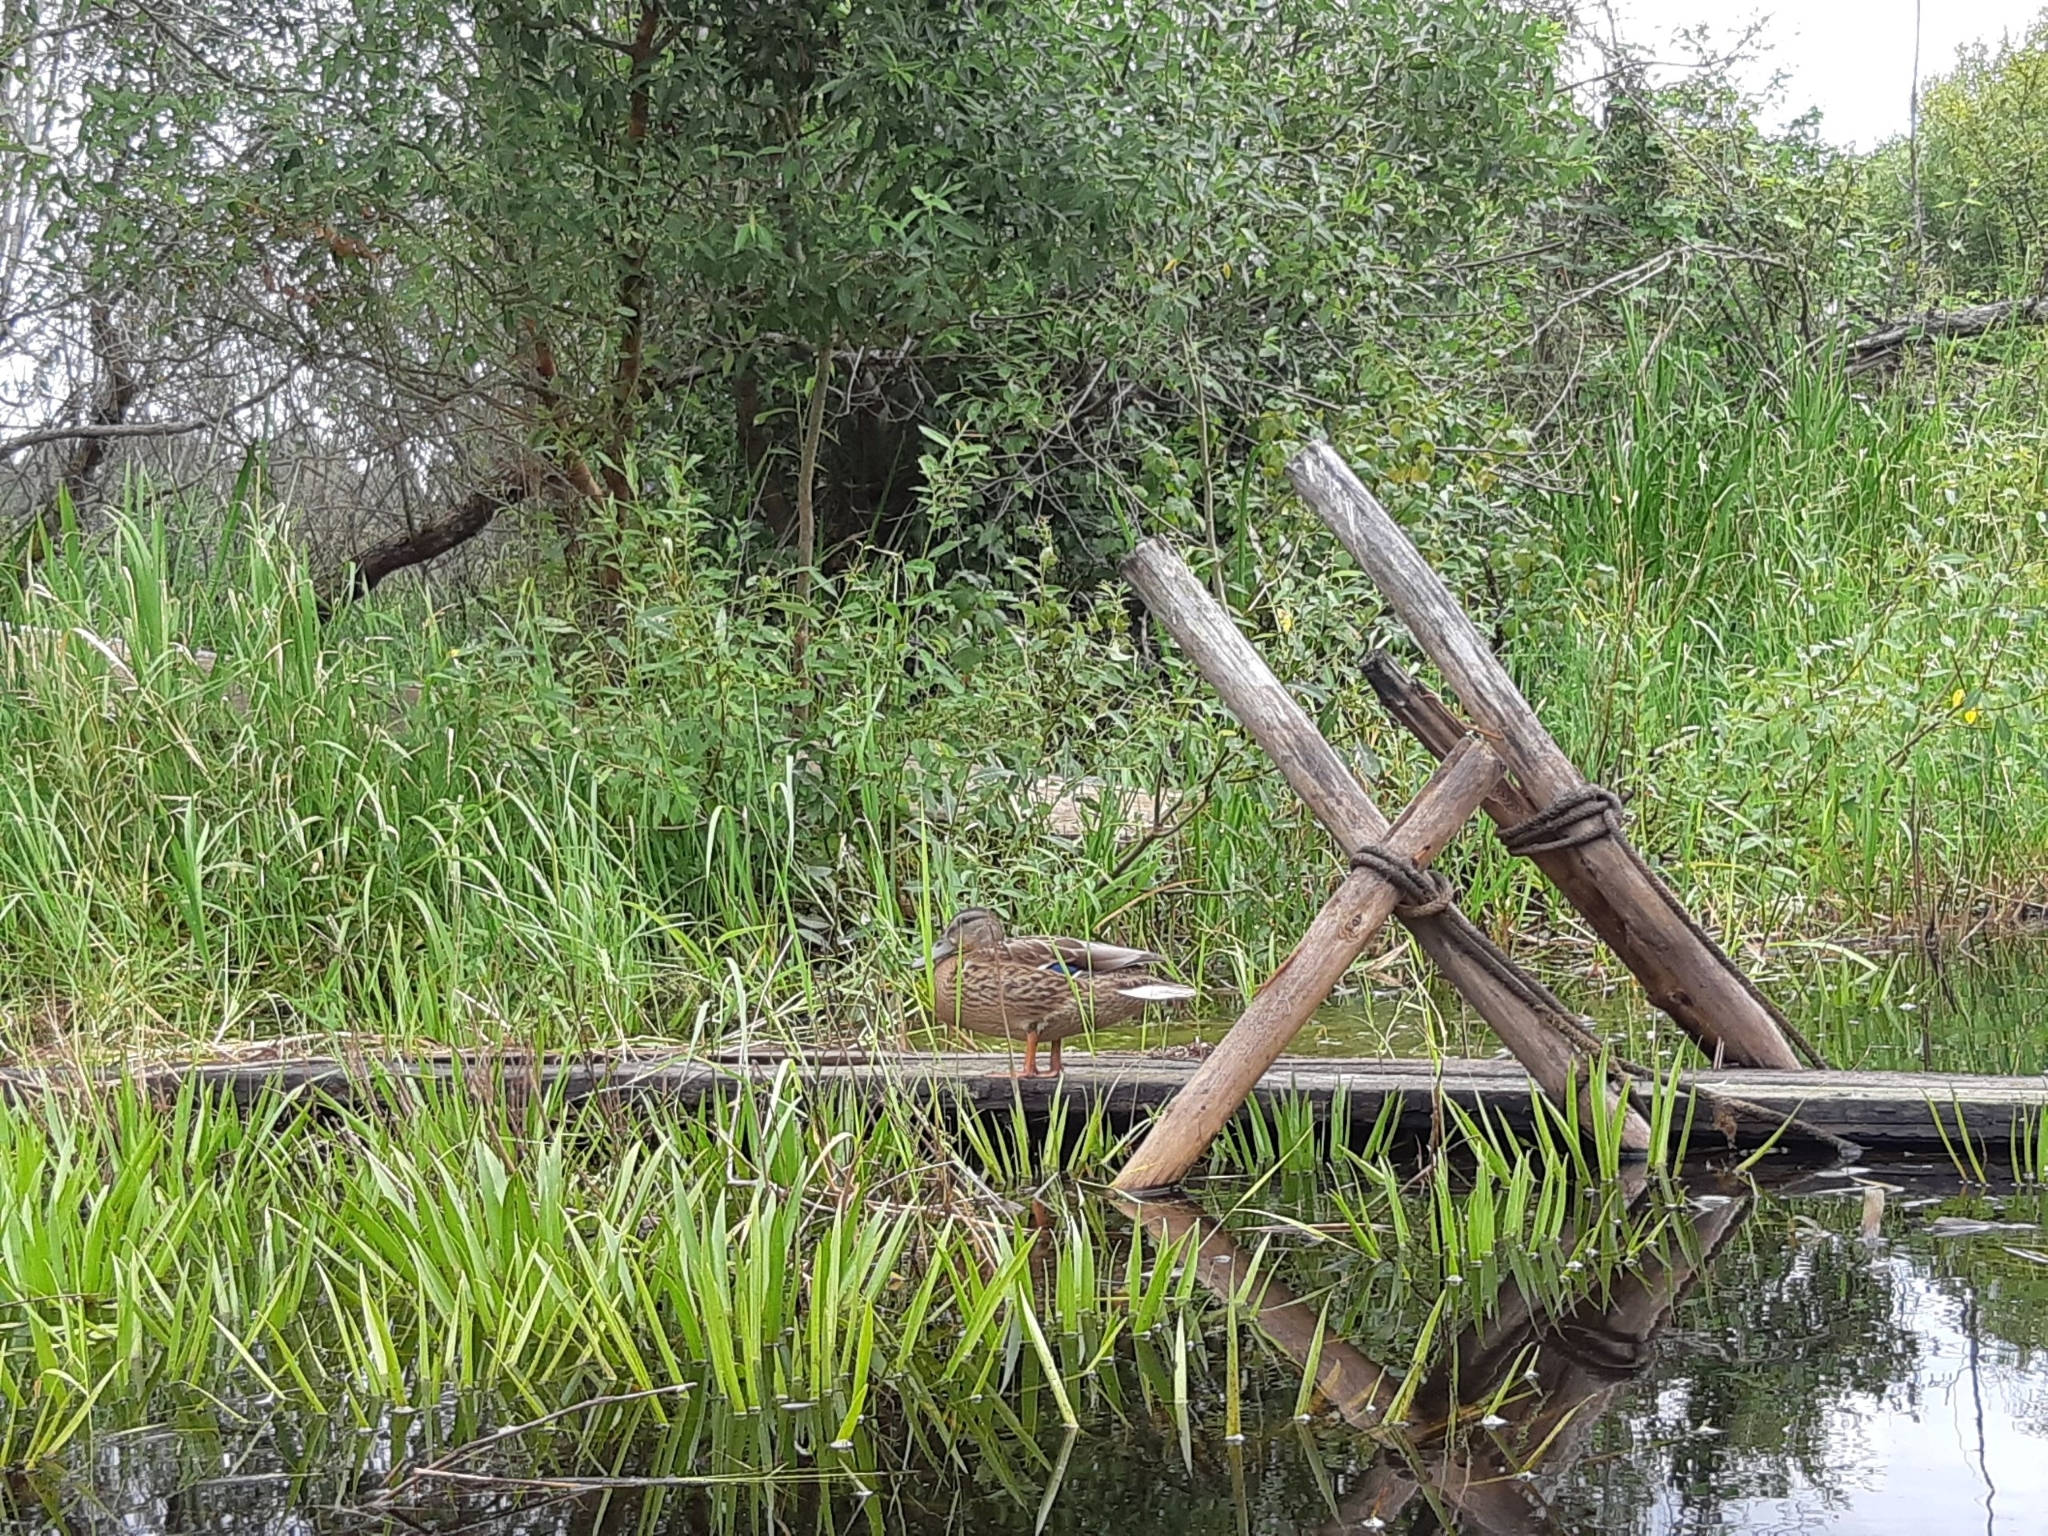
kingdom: Animalia
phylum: Chordata
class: Aves
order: Anseriformes
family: Anatidae
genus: Anas
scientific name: Anas platyrhynchos
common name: Mallard
